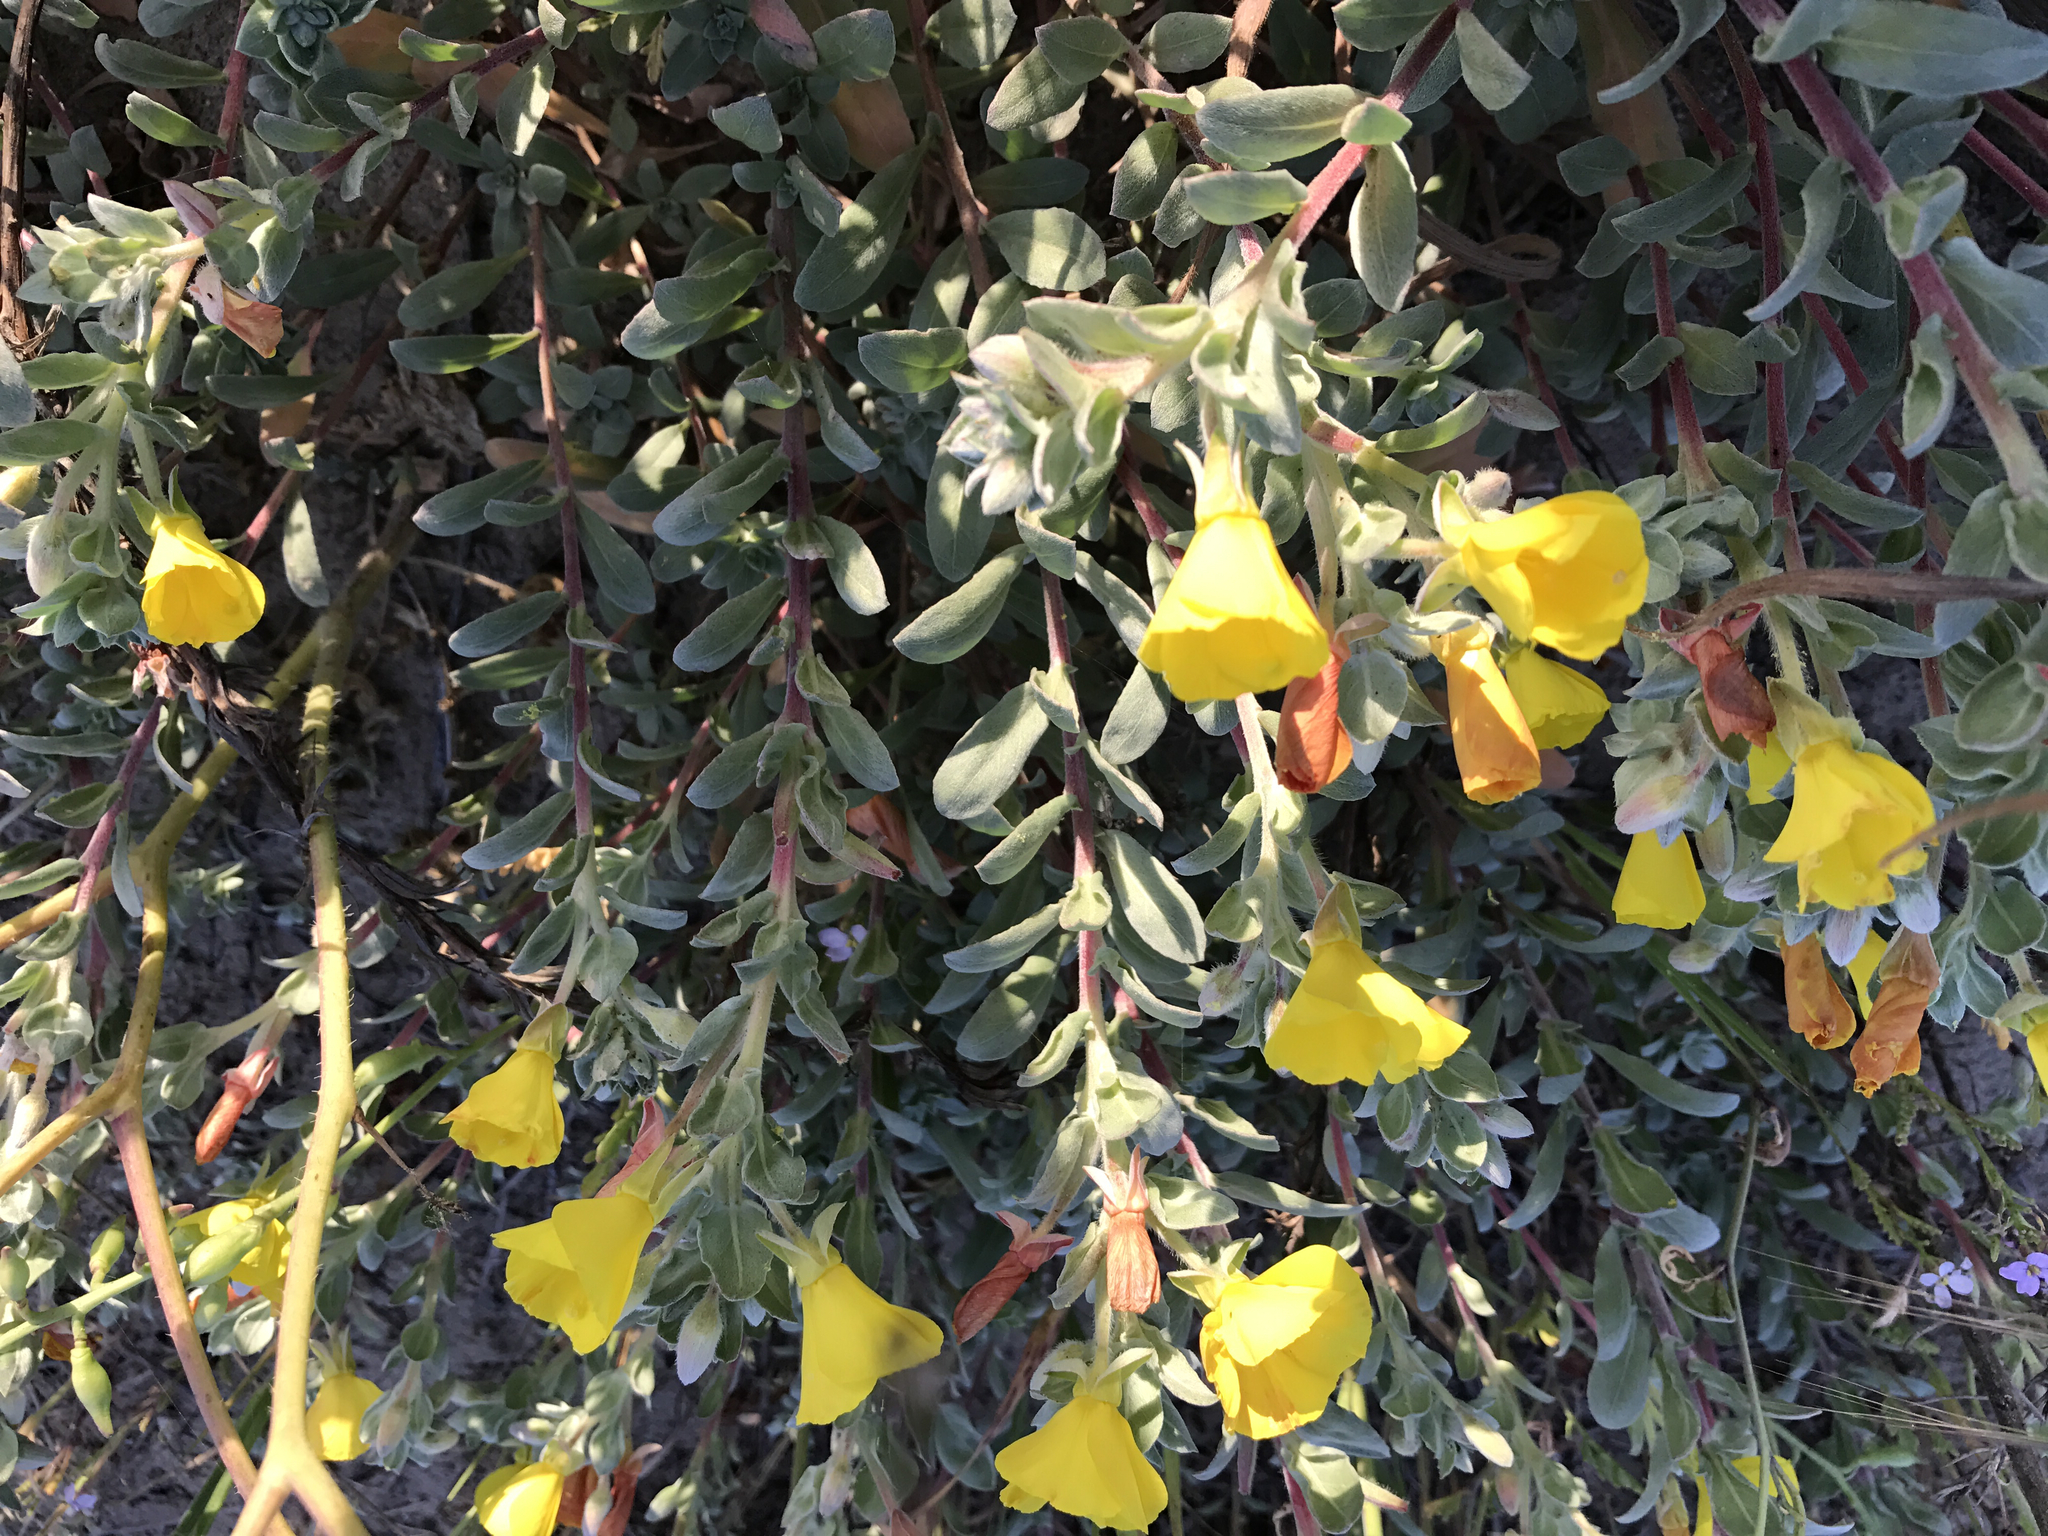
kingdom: Plantae
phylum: Tracheophyta
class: Magnoliopsida
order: Myrtales
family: Onagraceae
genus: Camissoniopsis
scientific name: Camissoniopsis cheiranthifolia
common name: Beach suncup
